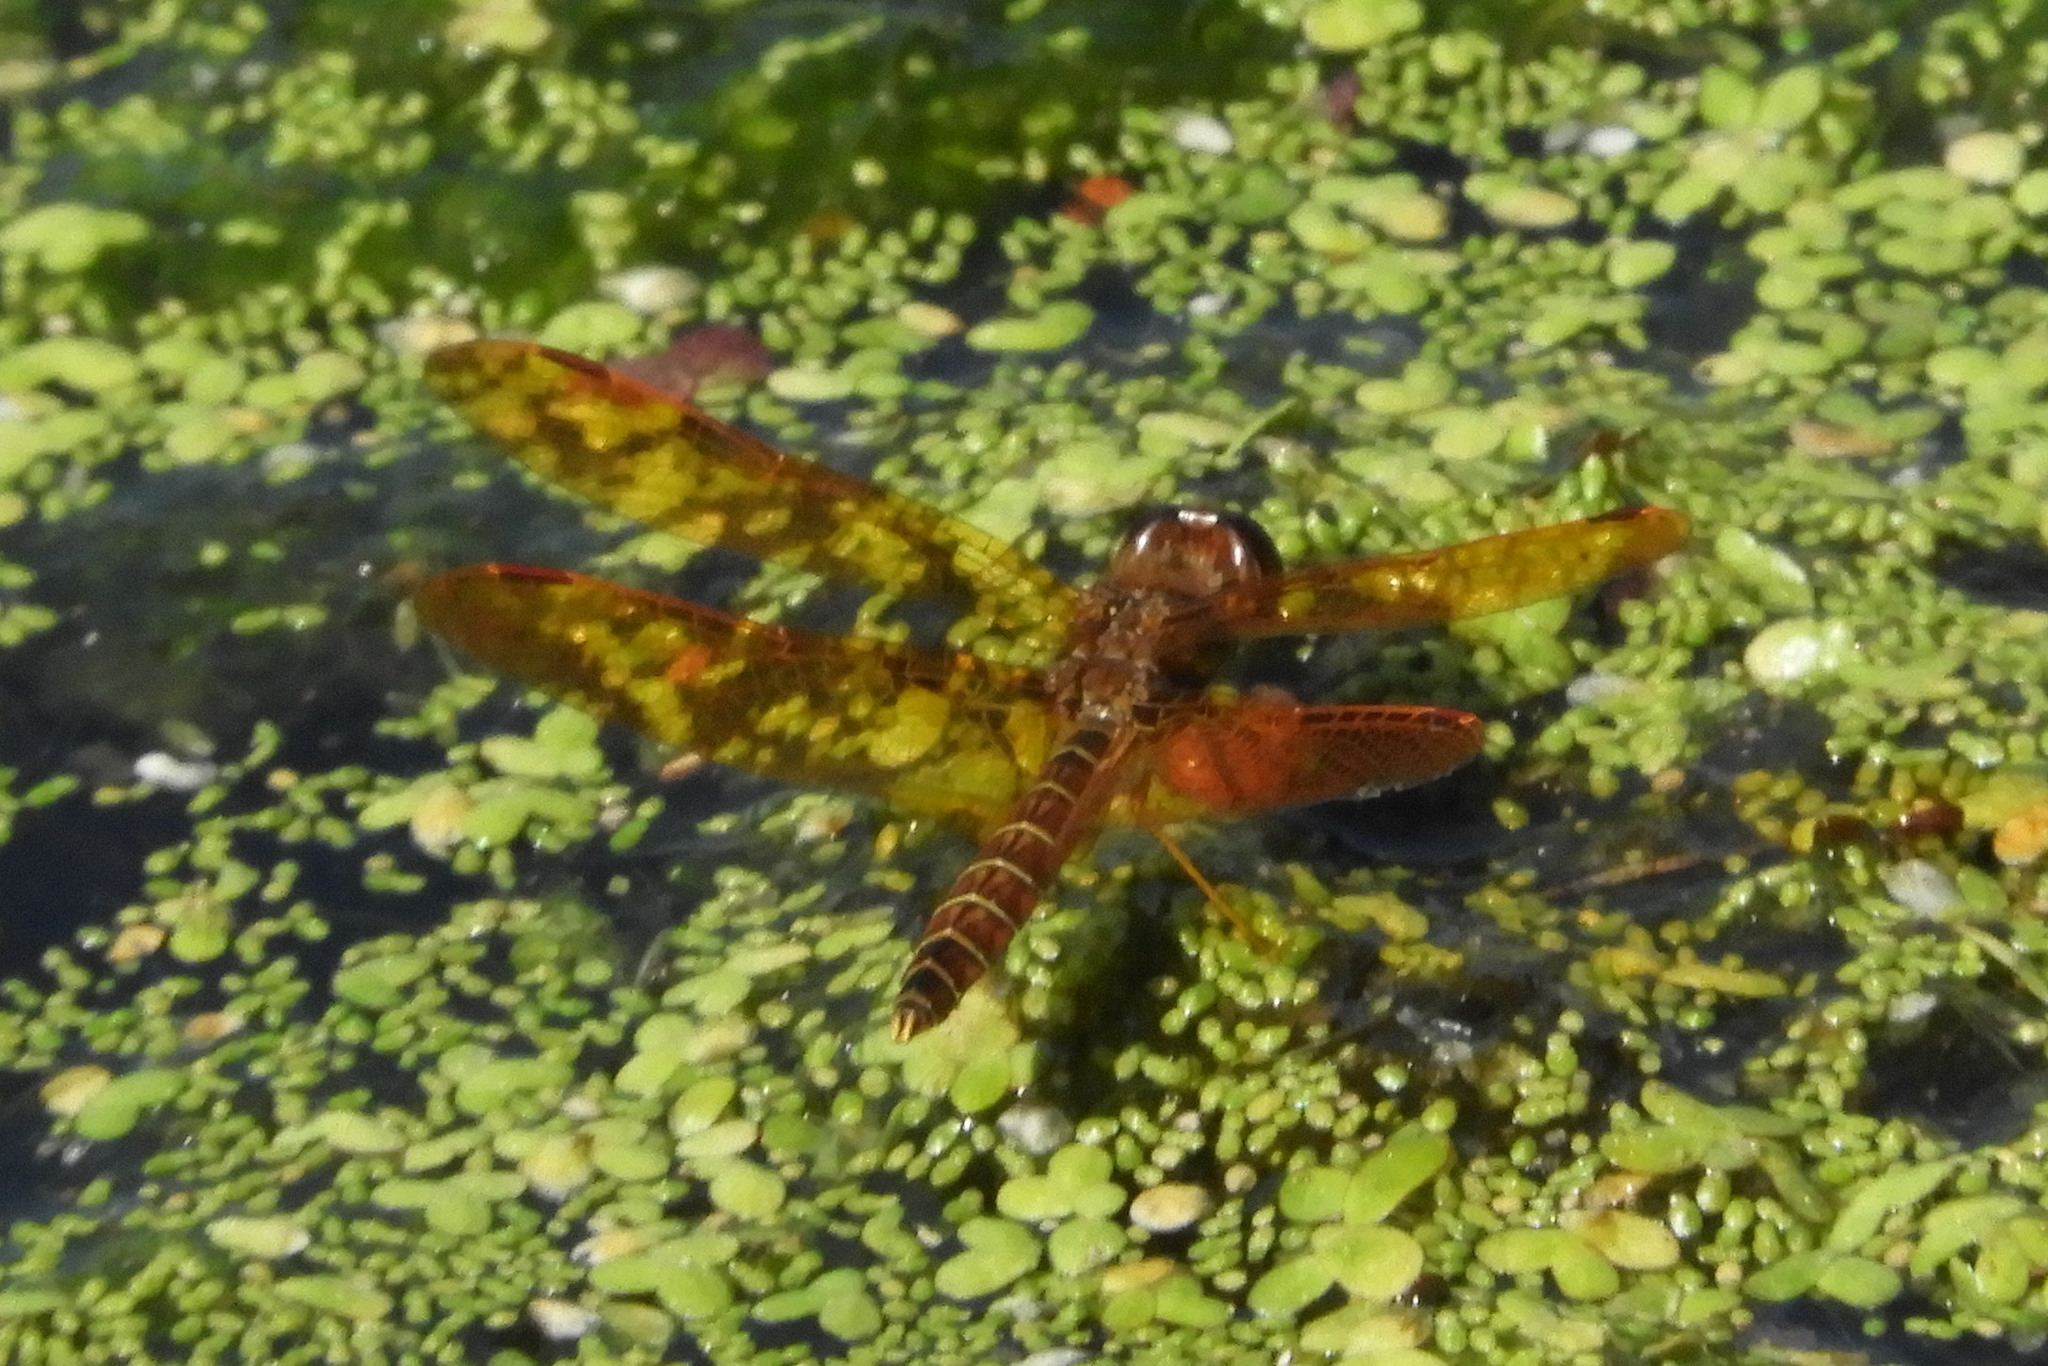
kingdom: Animalia
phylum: Arthropoda
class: Insecta
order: Odonata
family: Libellulidae
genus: Perithemis
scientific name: Perithemis tenera
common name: Eastern amberwing
